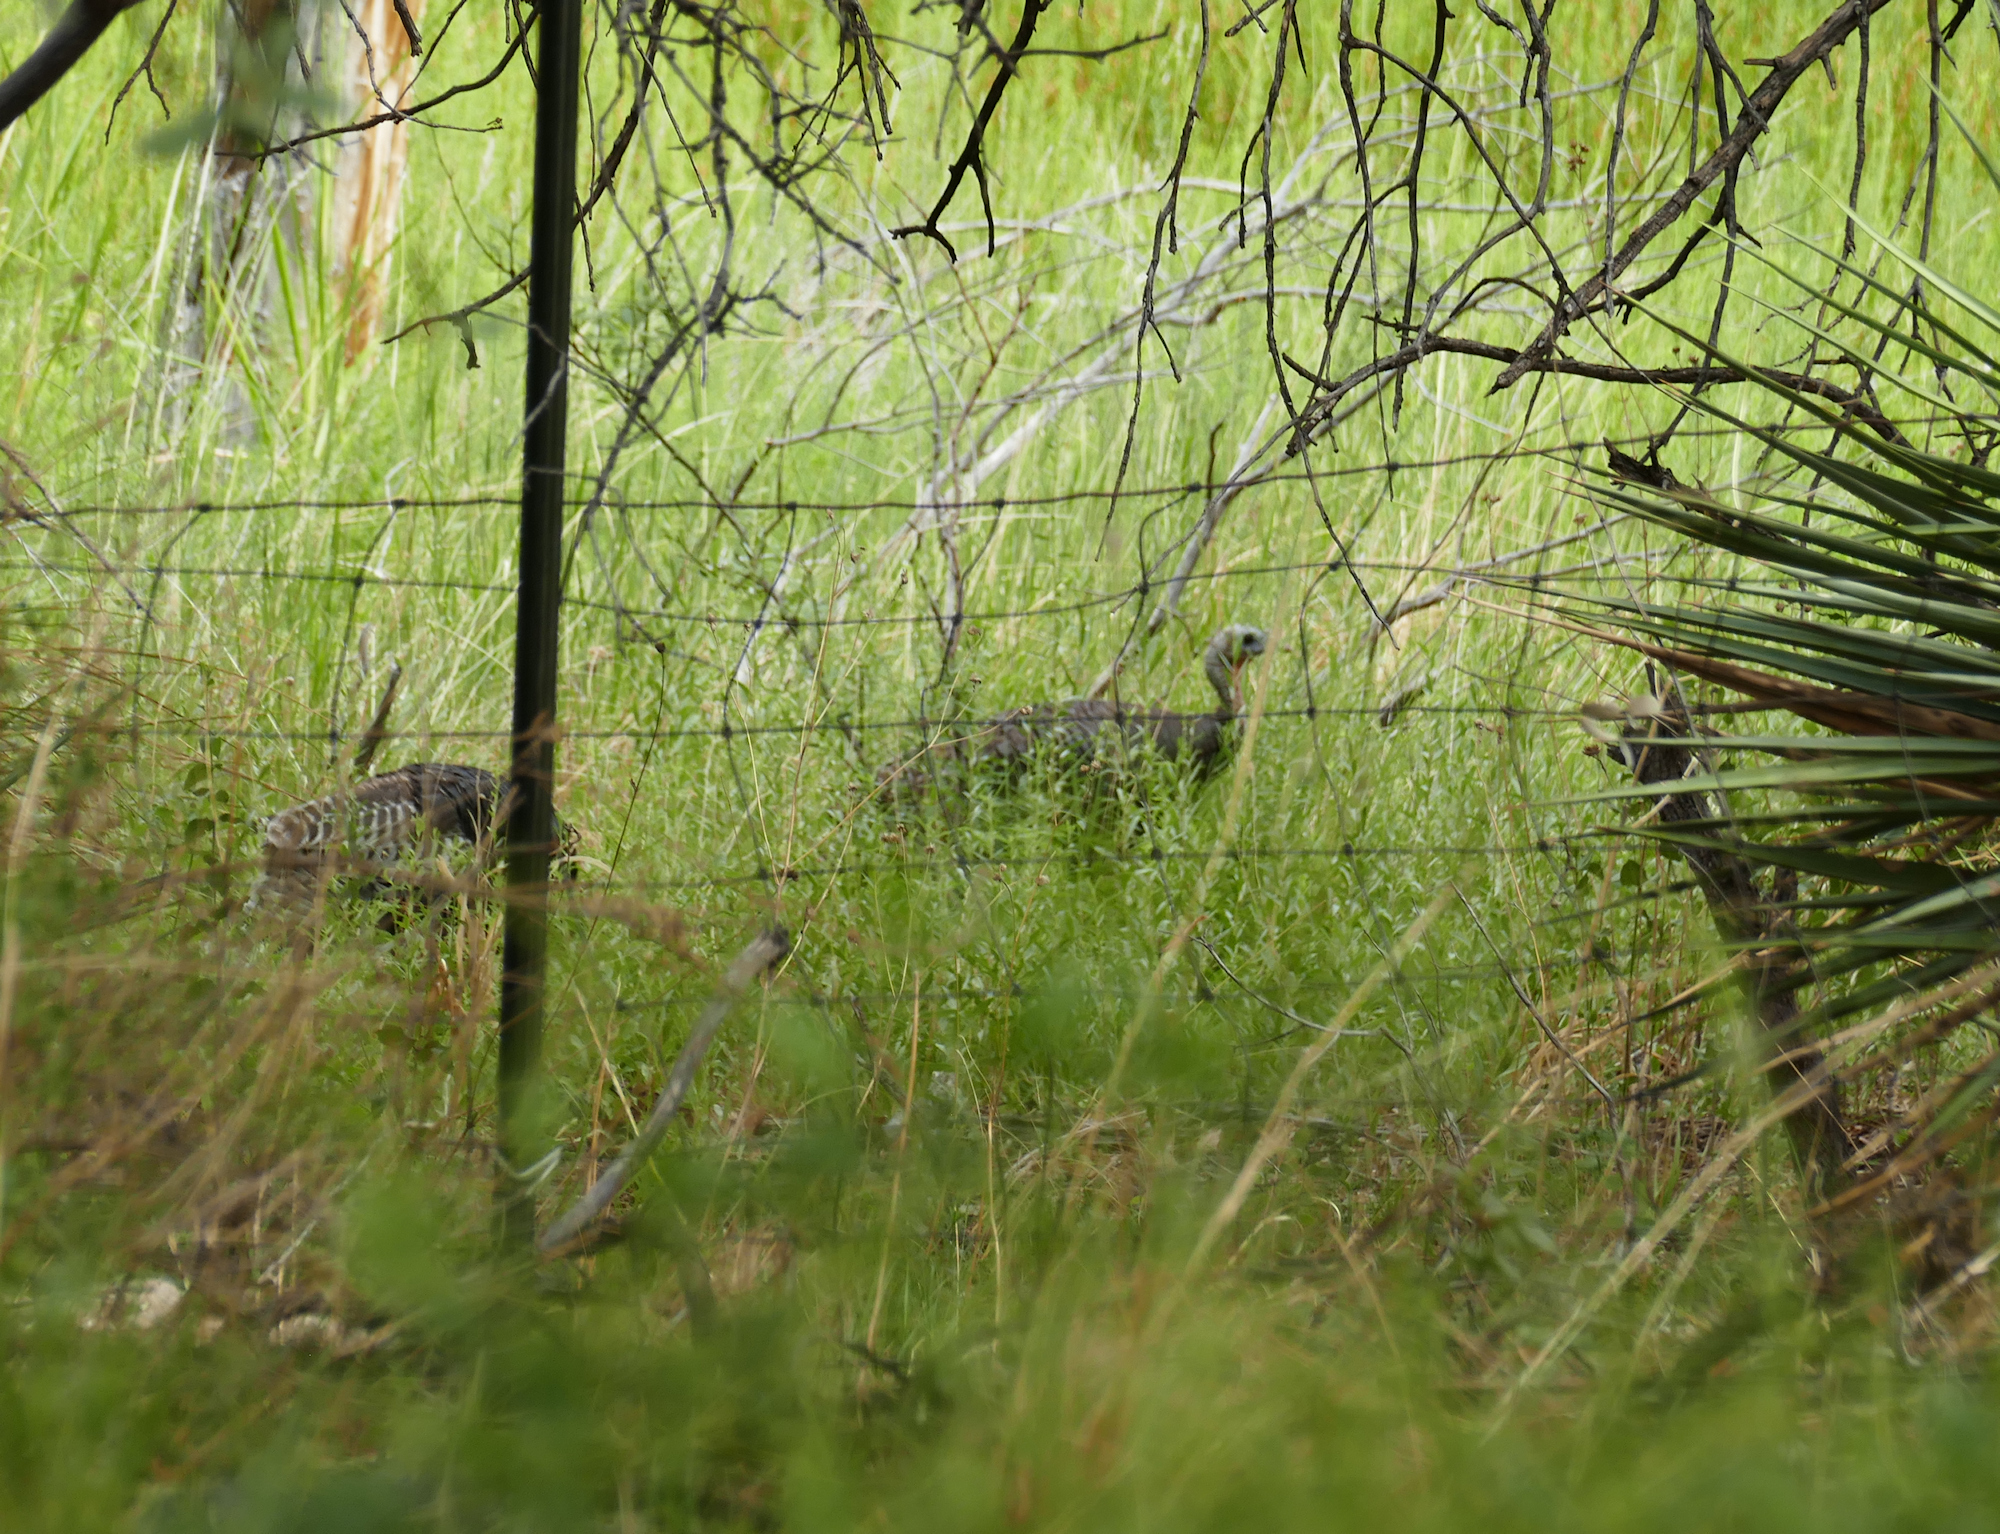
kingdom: Animalia
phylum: Chordata
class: Aves
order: Galliformes
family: Phasianidae
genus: Meleagris
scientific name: Meleagris gallopavo
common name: Wild turkey
